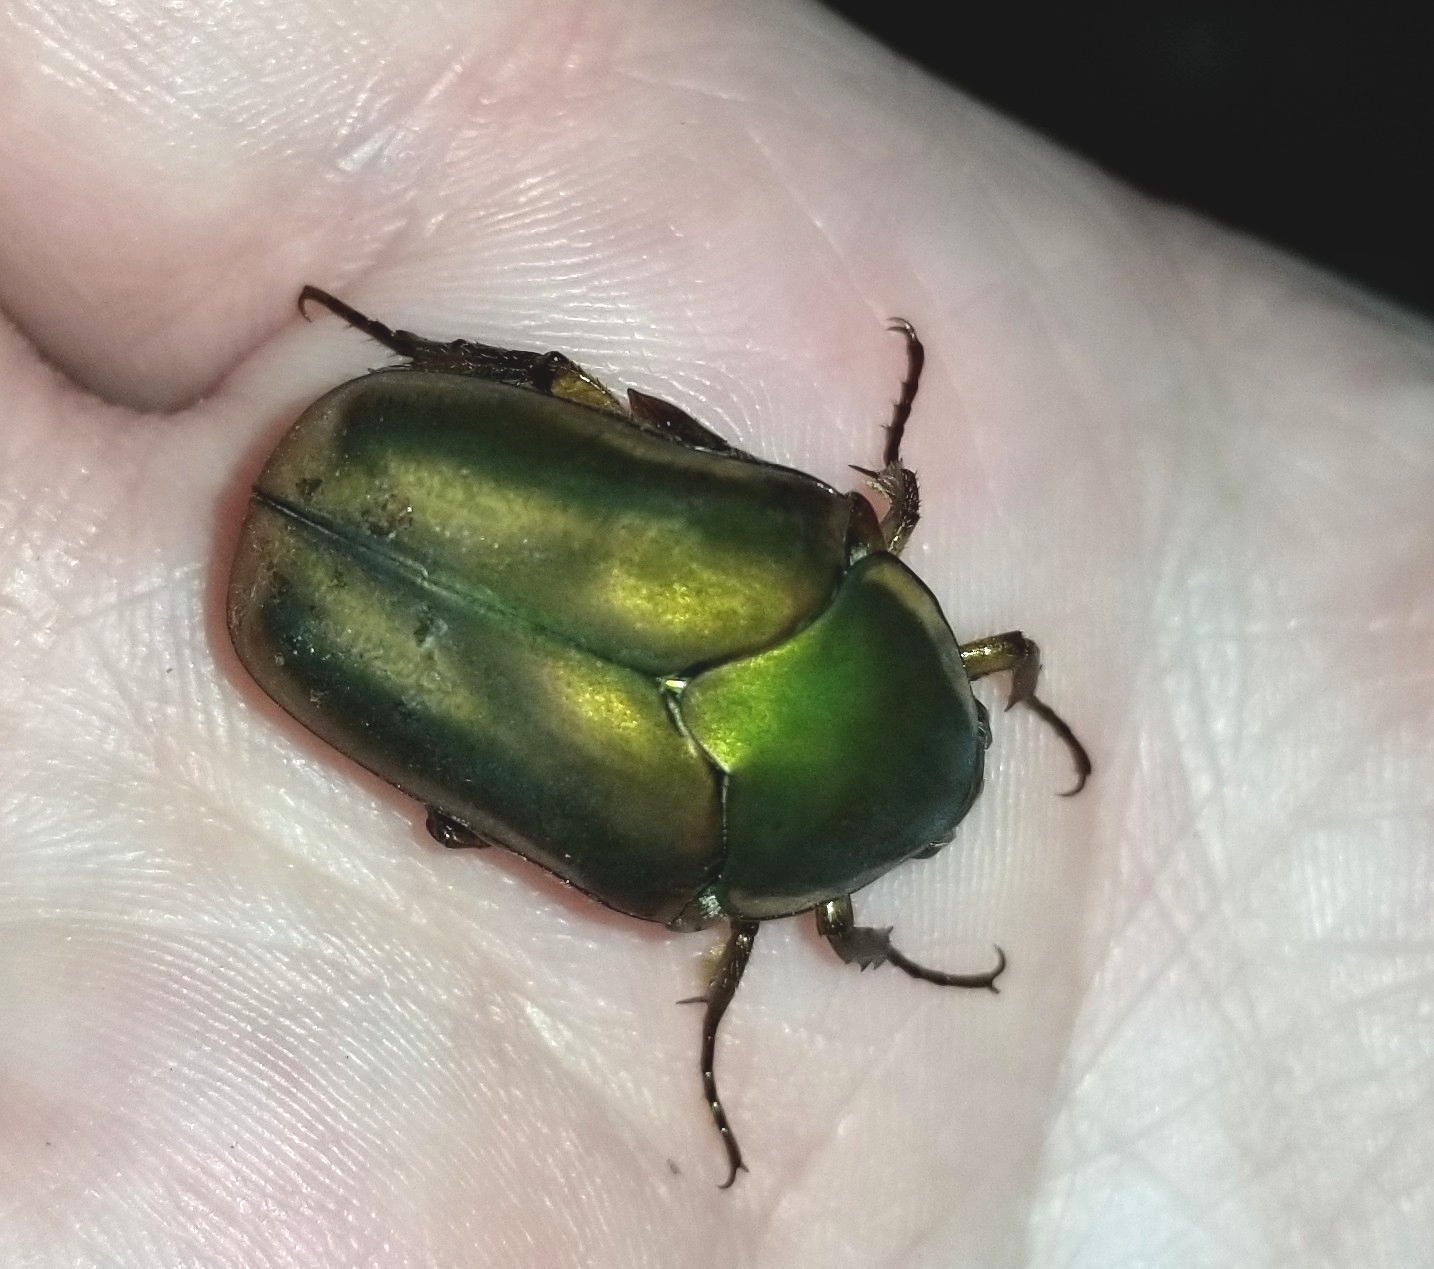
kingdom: Animalia
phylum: Arthropoda
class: Insecta
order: Coleoptera
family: Scarabaeidae
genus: Cotinis
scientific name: Cotinis nitida
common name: Common green june beetle
